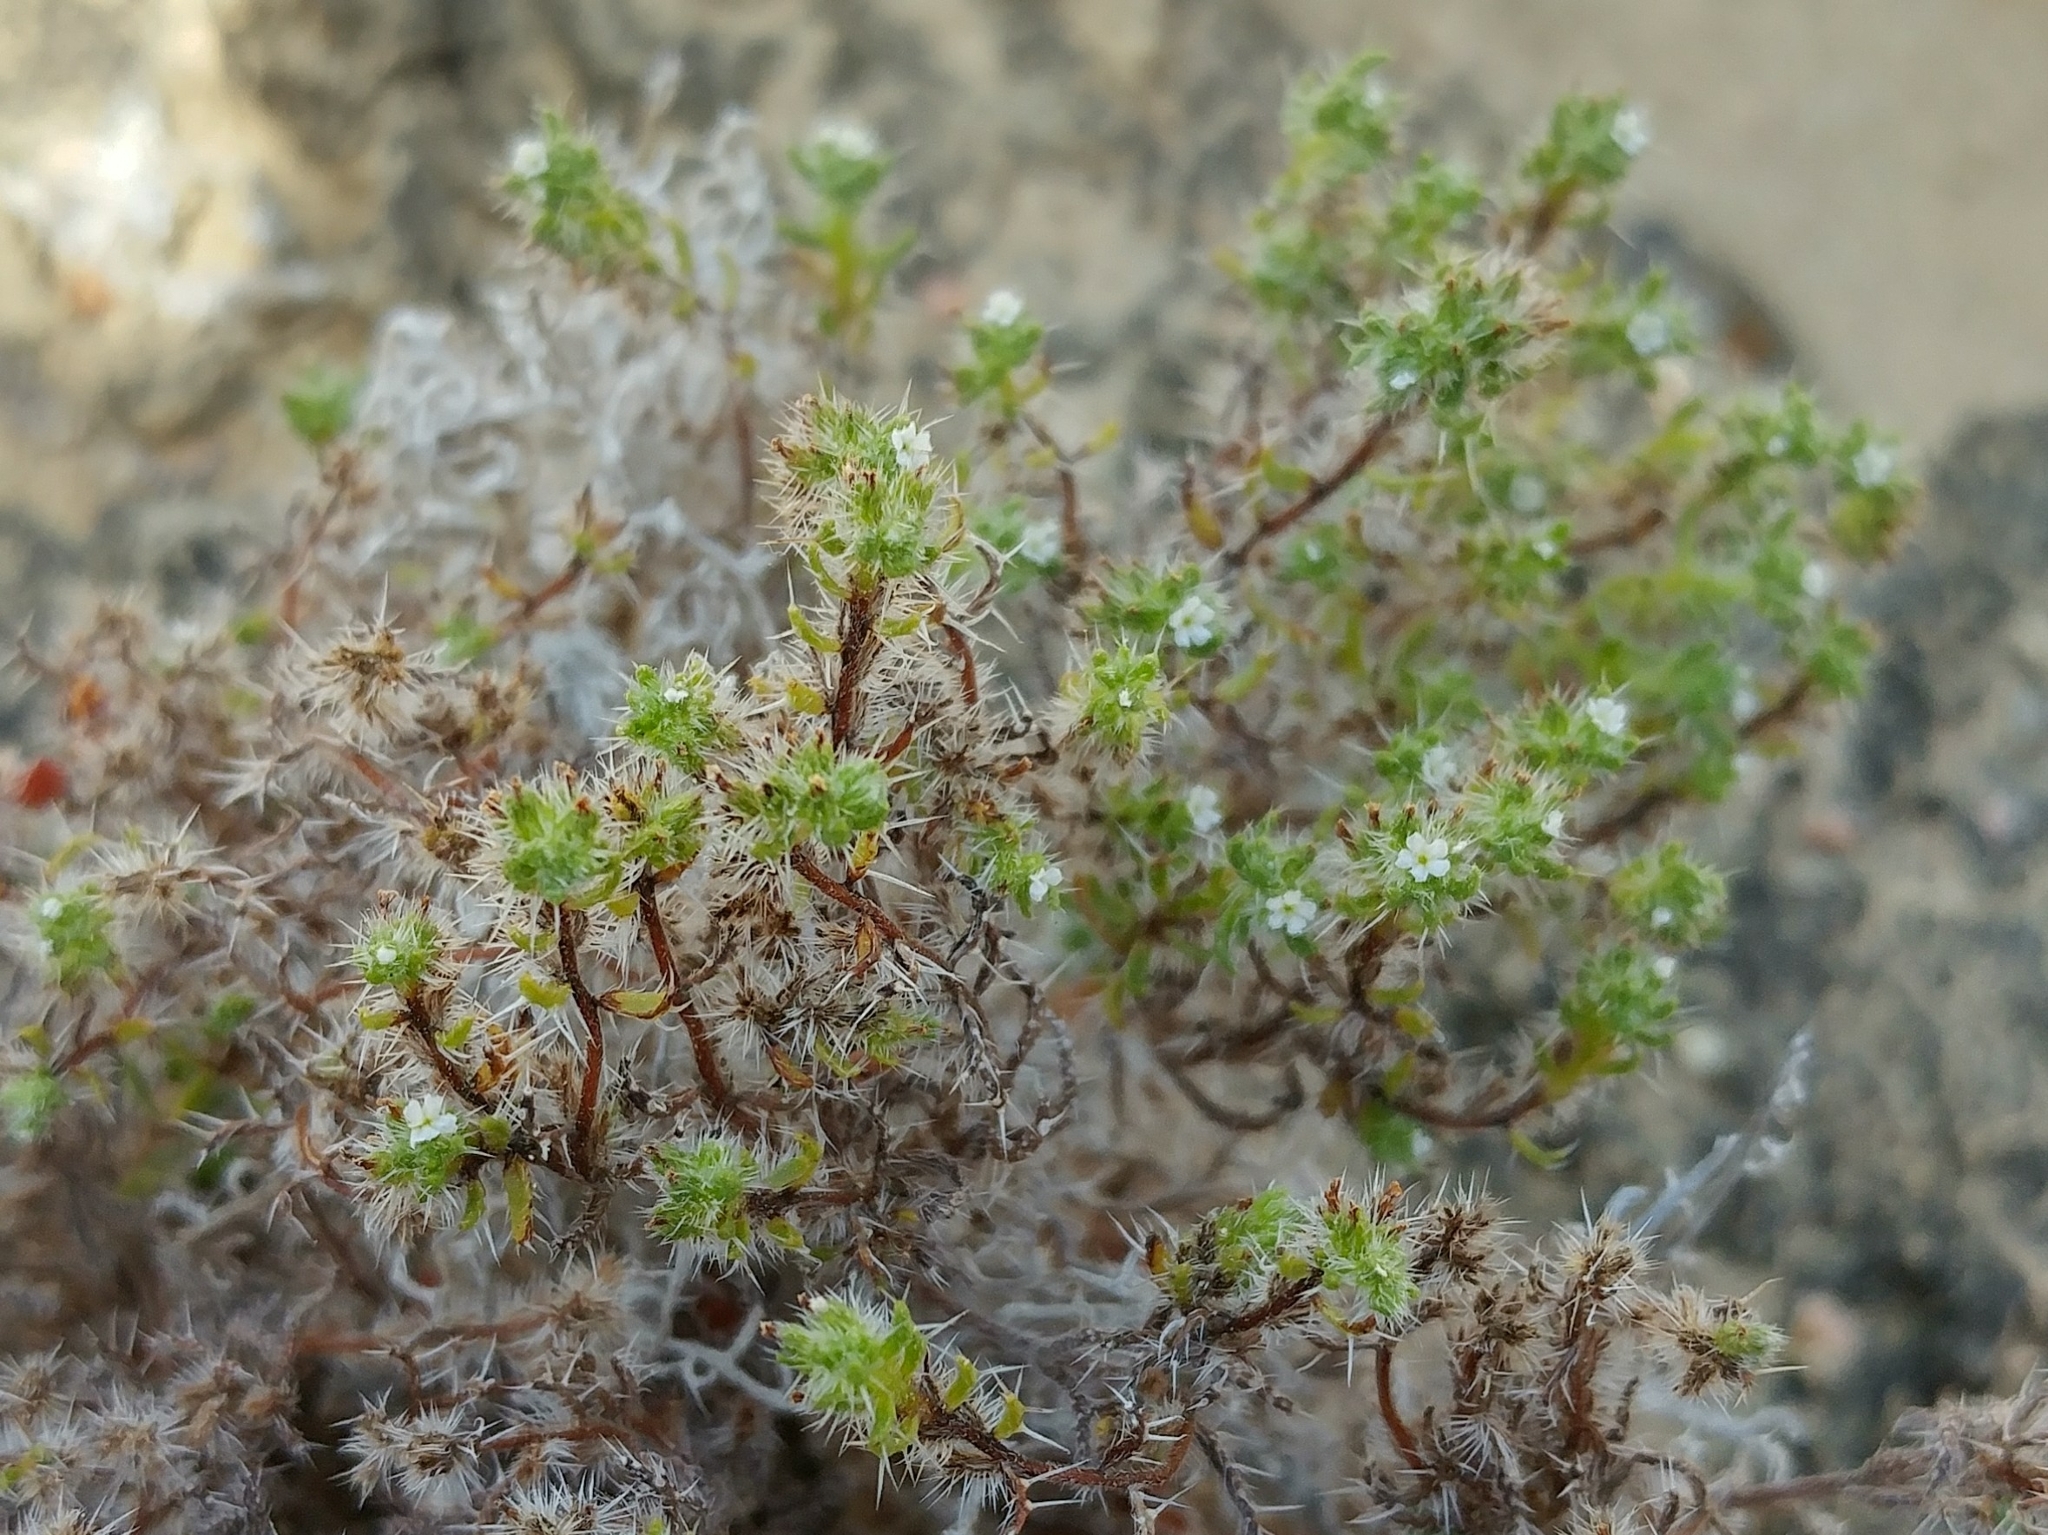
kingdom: Plantae
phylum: Tracheophyta
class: Magnoliopsida
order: Boraginales
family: Boraginaceae
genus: Cryptantha
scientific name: Cryptantha maritima
